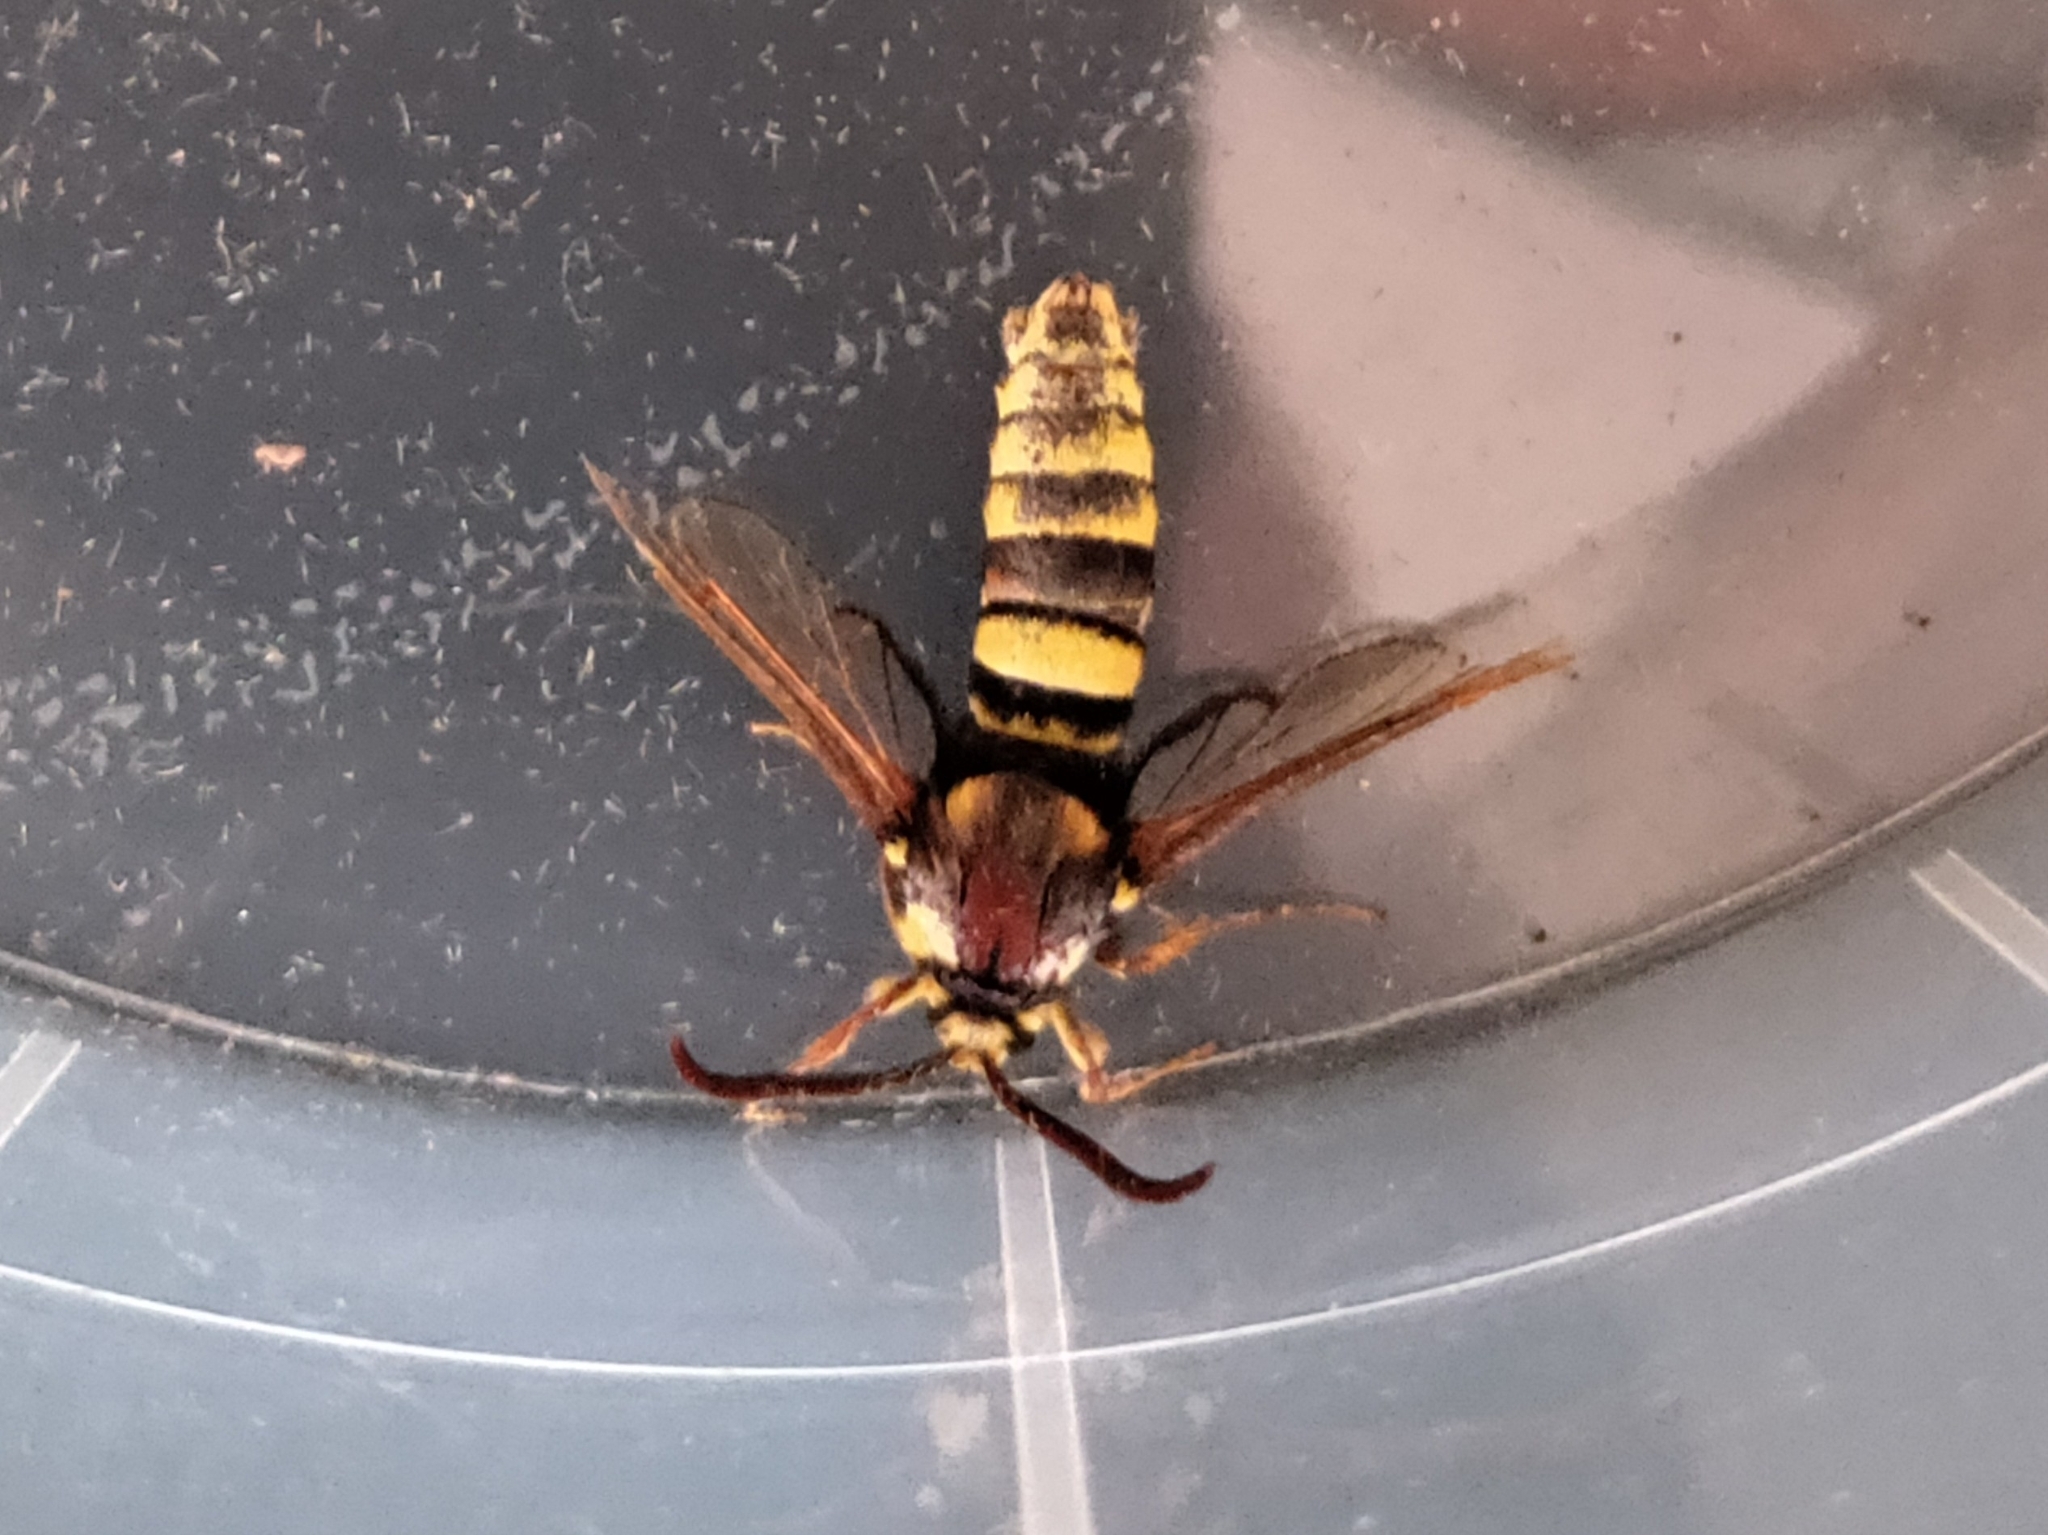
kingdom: Animalia
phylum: Arthropoda
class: Insecta
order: Lepidoptera
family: Sesiidae
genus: Sesia
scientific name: Sesia apiformis
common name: Hornet moth
